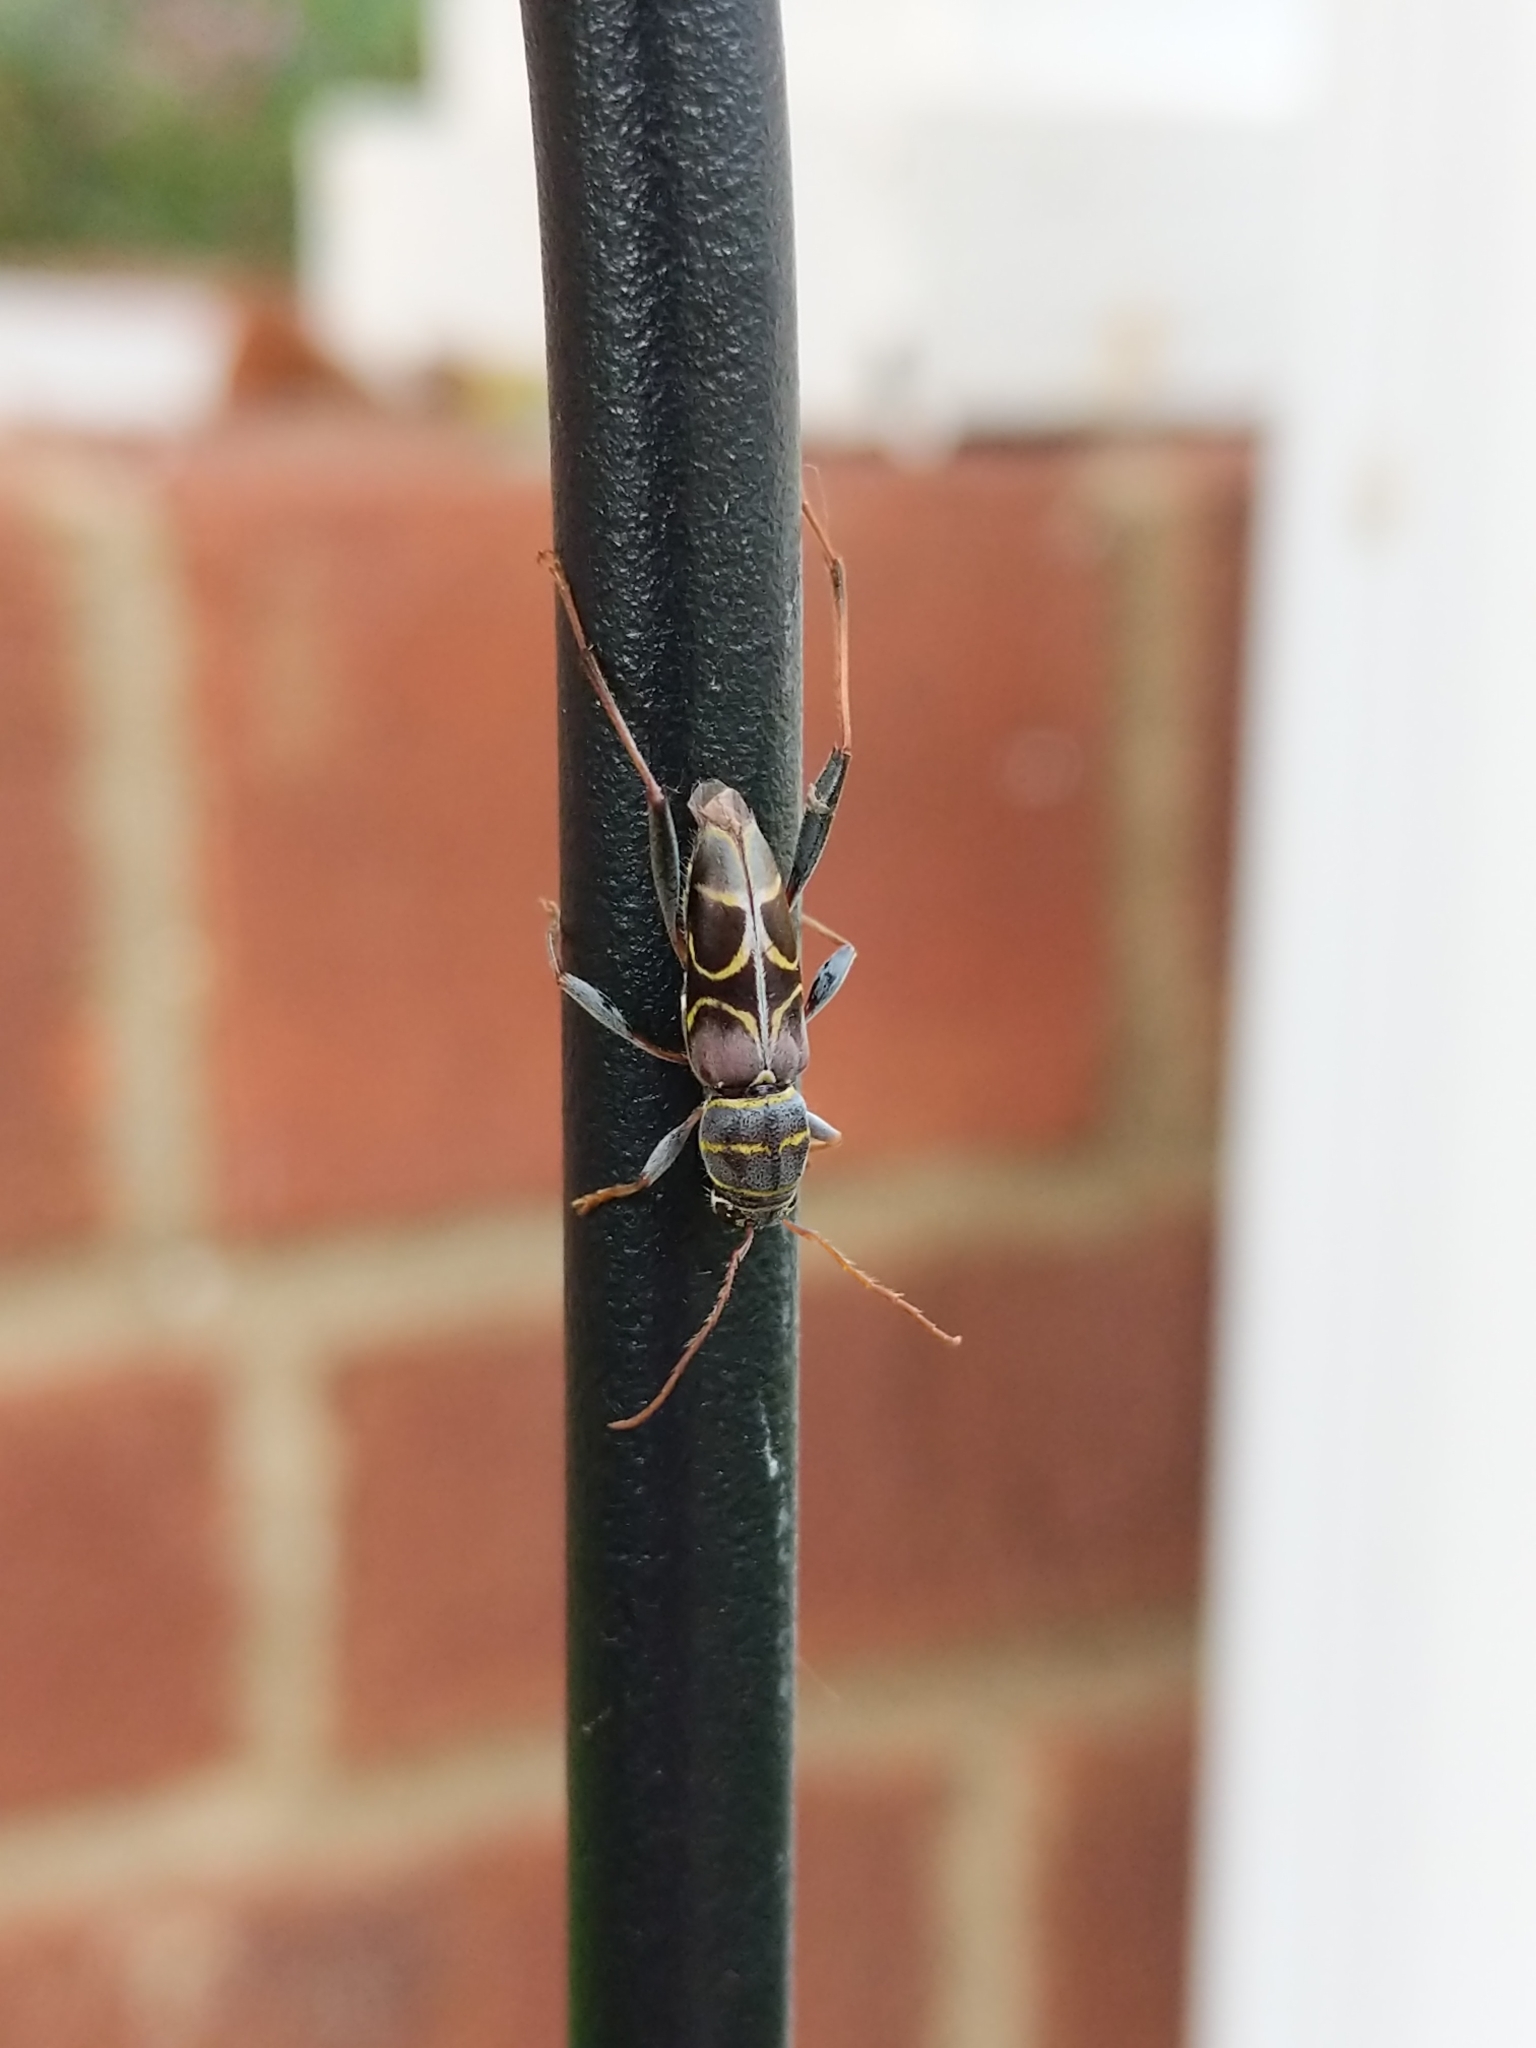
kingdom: Animalia
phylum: Arthropoda
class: Insecta
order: Coleoptera
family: Cerambycidae
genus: Neoclytus
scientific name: Neoclytus scutellaris
